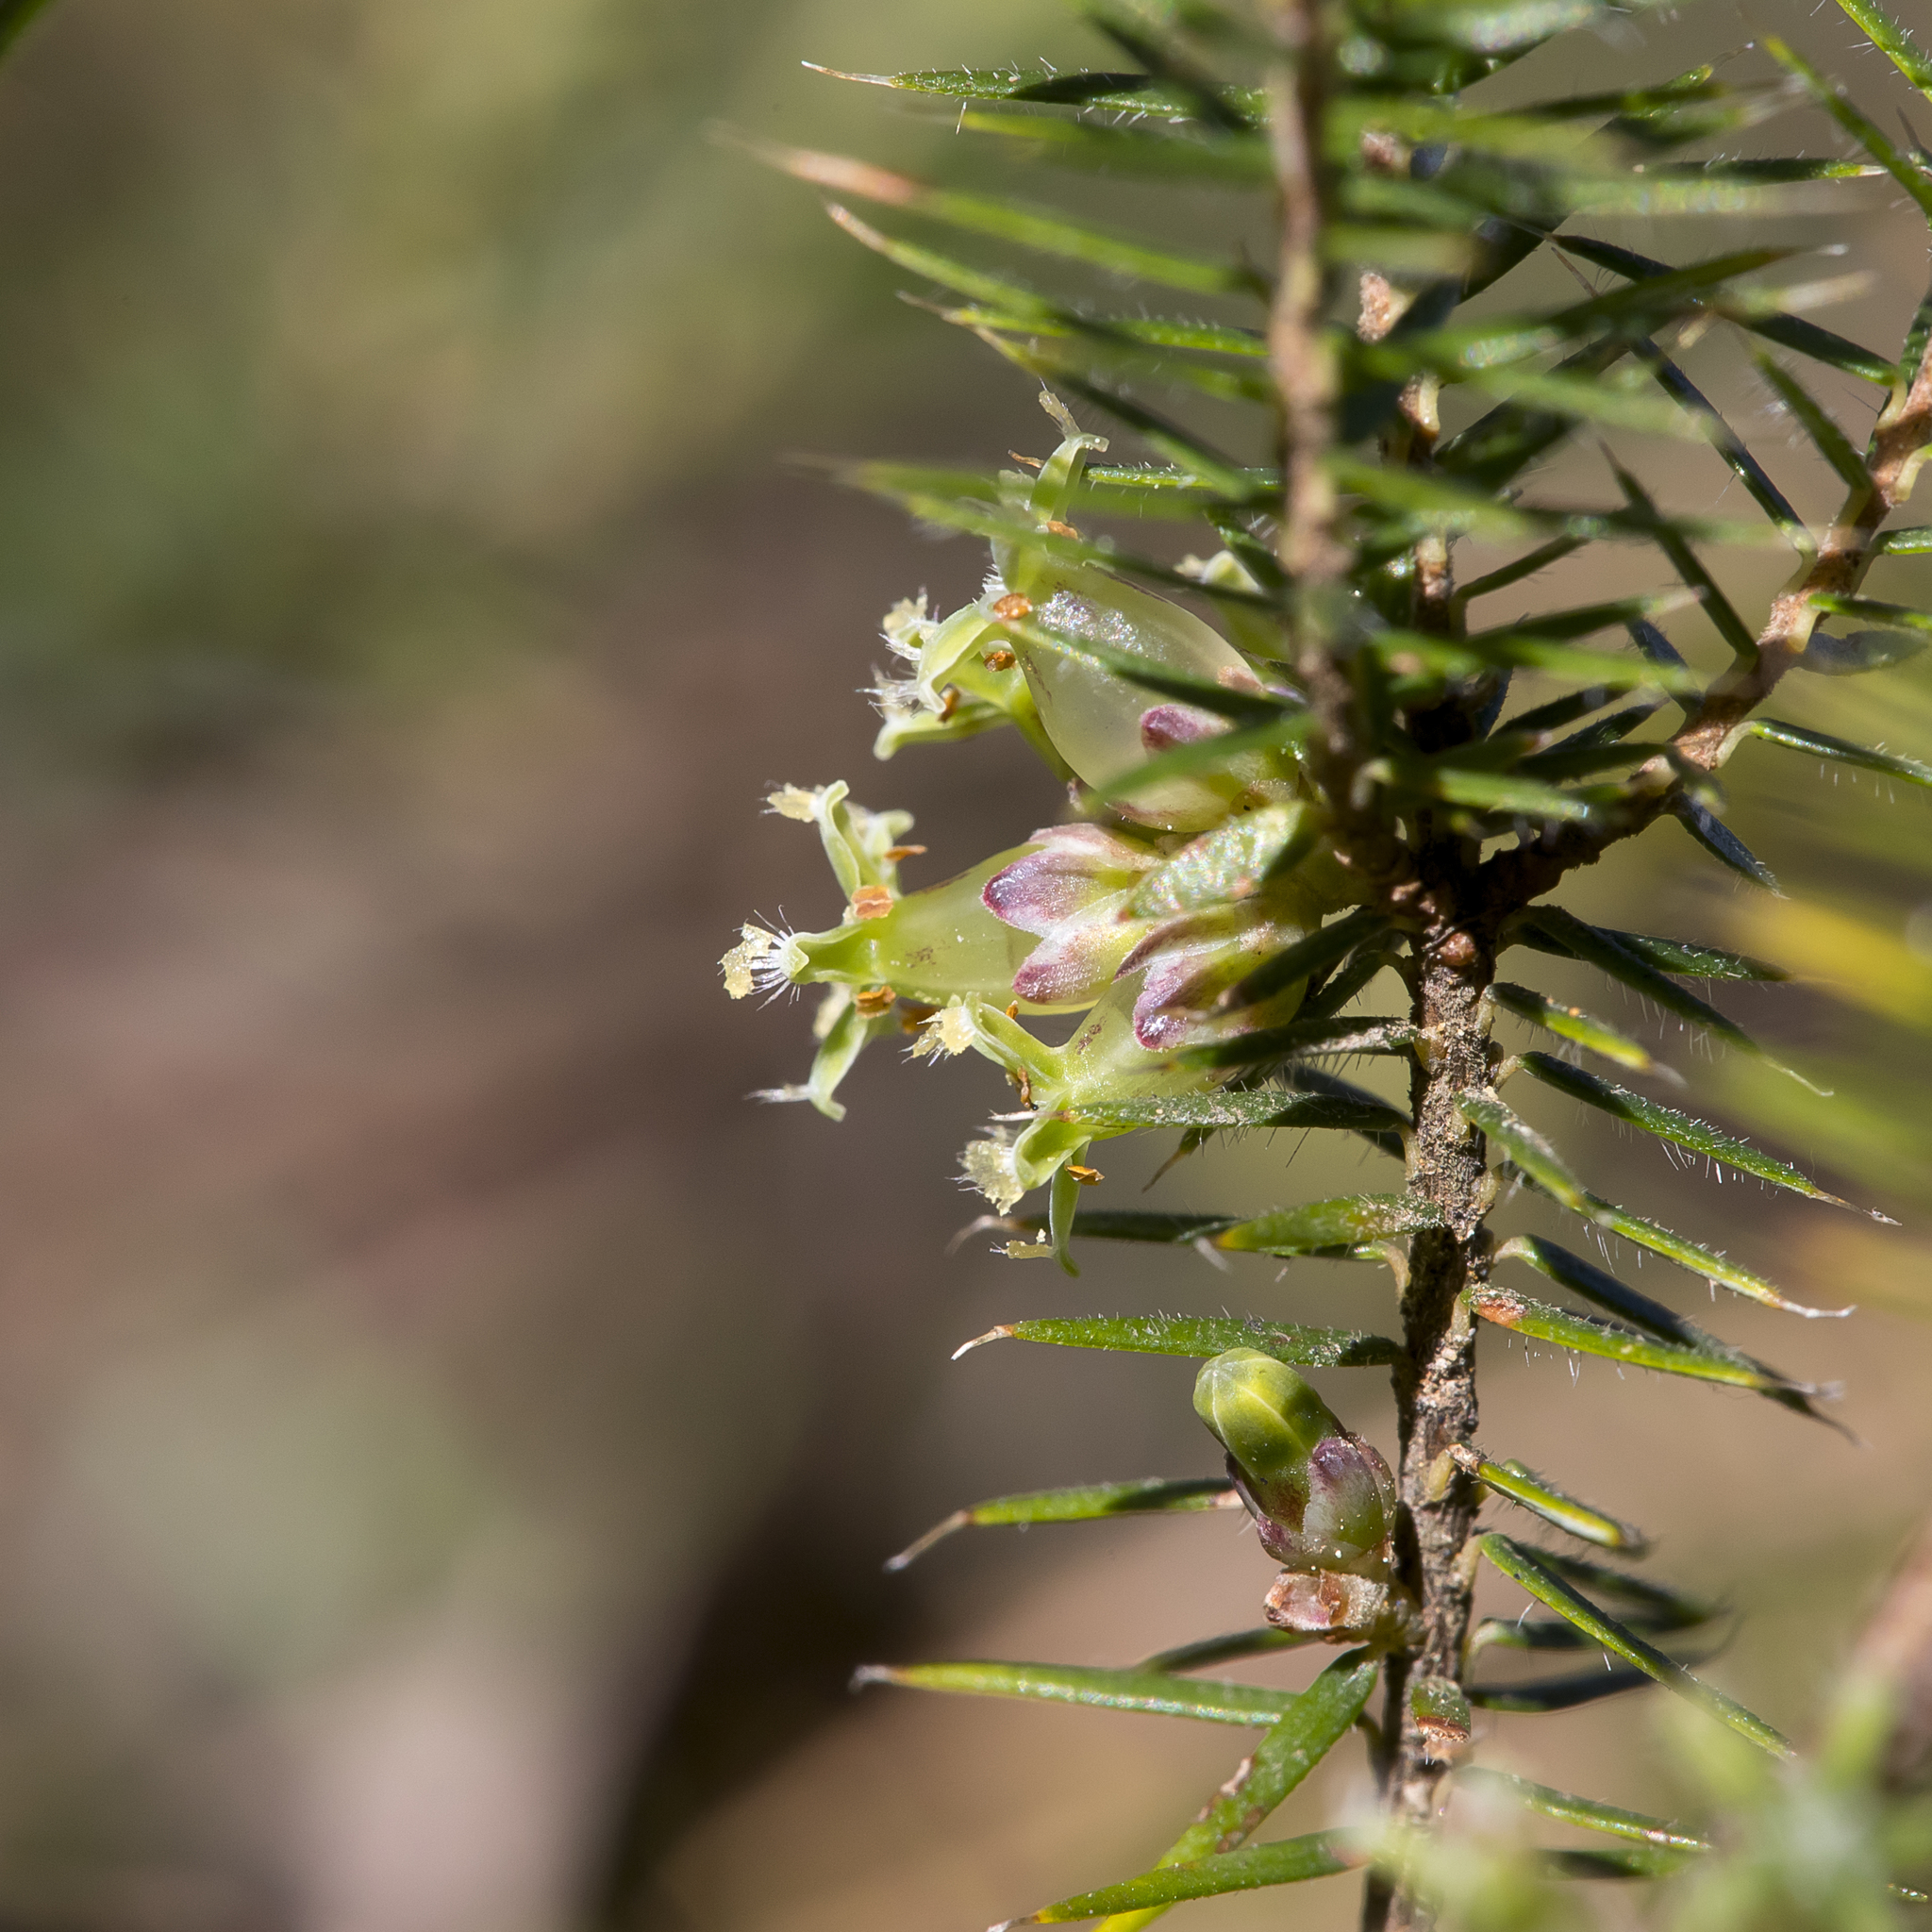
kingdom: Plantae
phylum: Tracheophyta
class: Magnoliopsida
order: Ericales
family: Ericaceae
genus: Acrotriche
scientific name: Acrotriche serrulata
